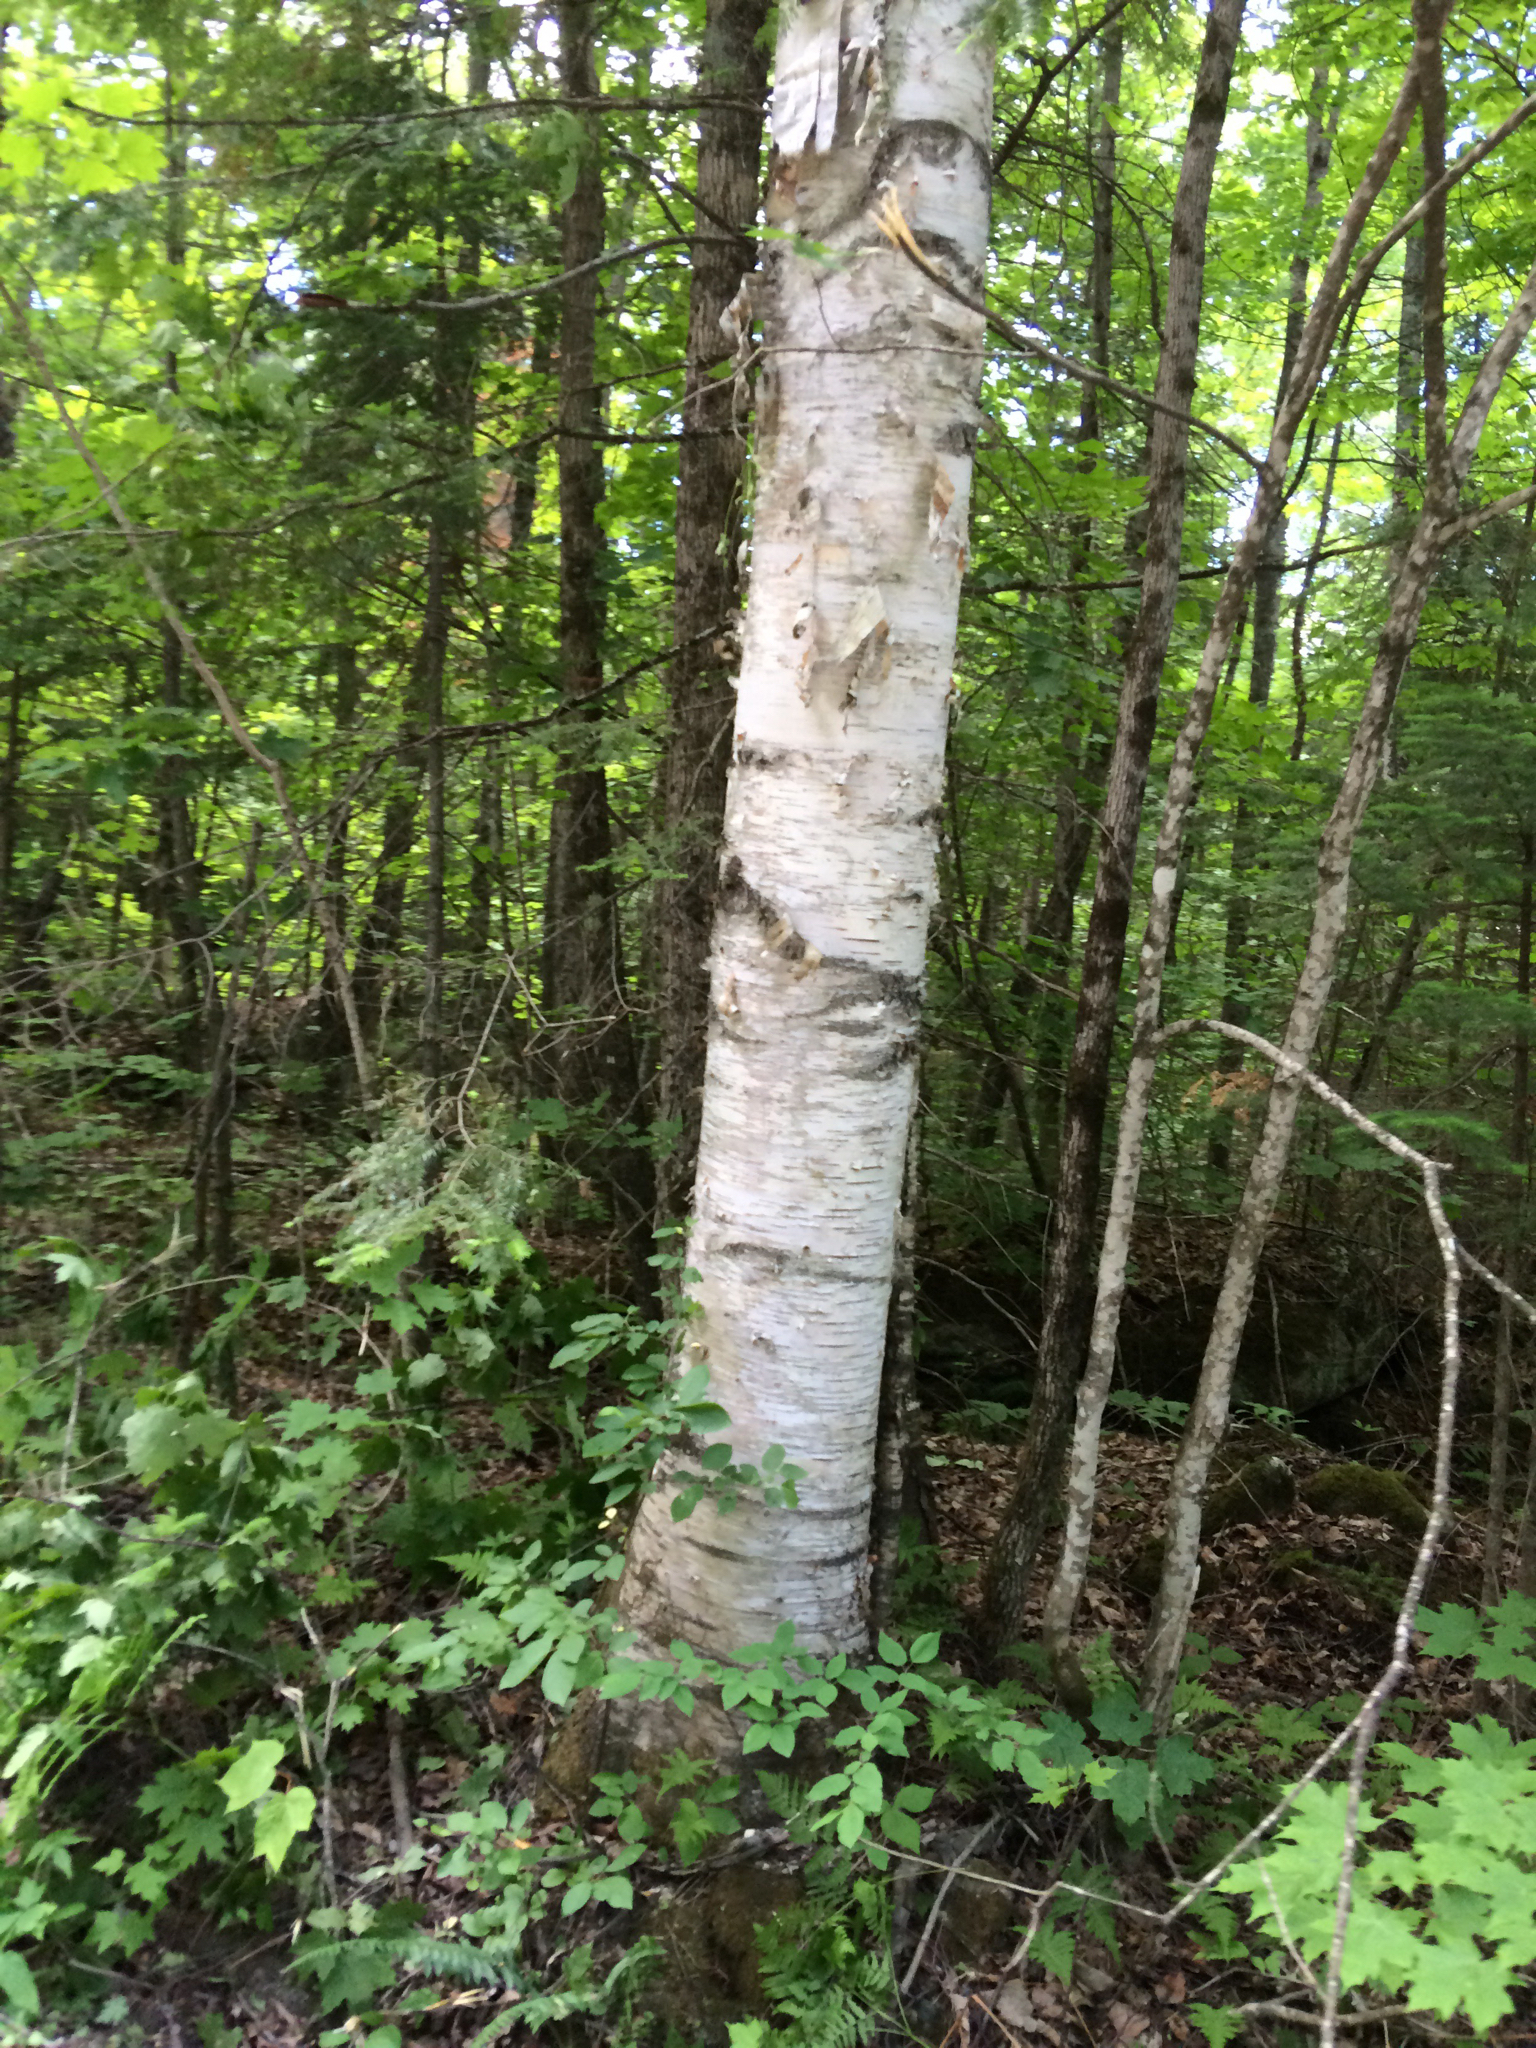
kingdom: Plantae
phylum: Tracheophyta
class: Magnoliopsida
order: Fagales
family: Betulaceae
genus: Betula
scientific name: Betula papyrifera
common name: Paper birch
